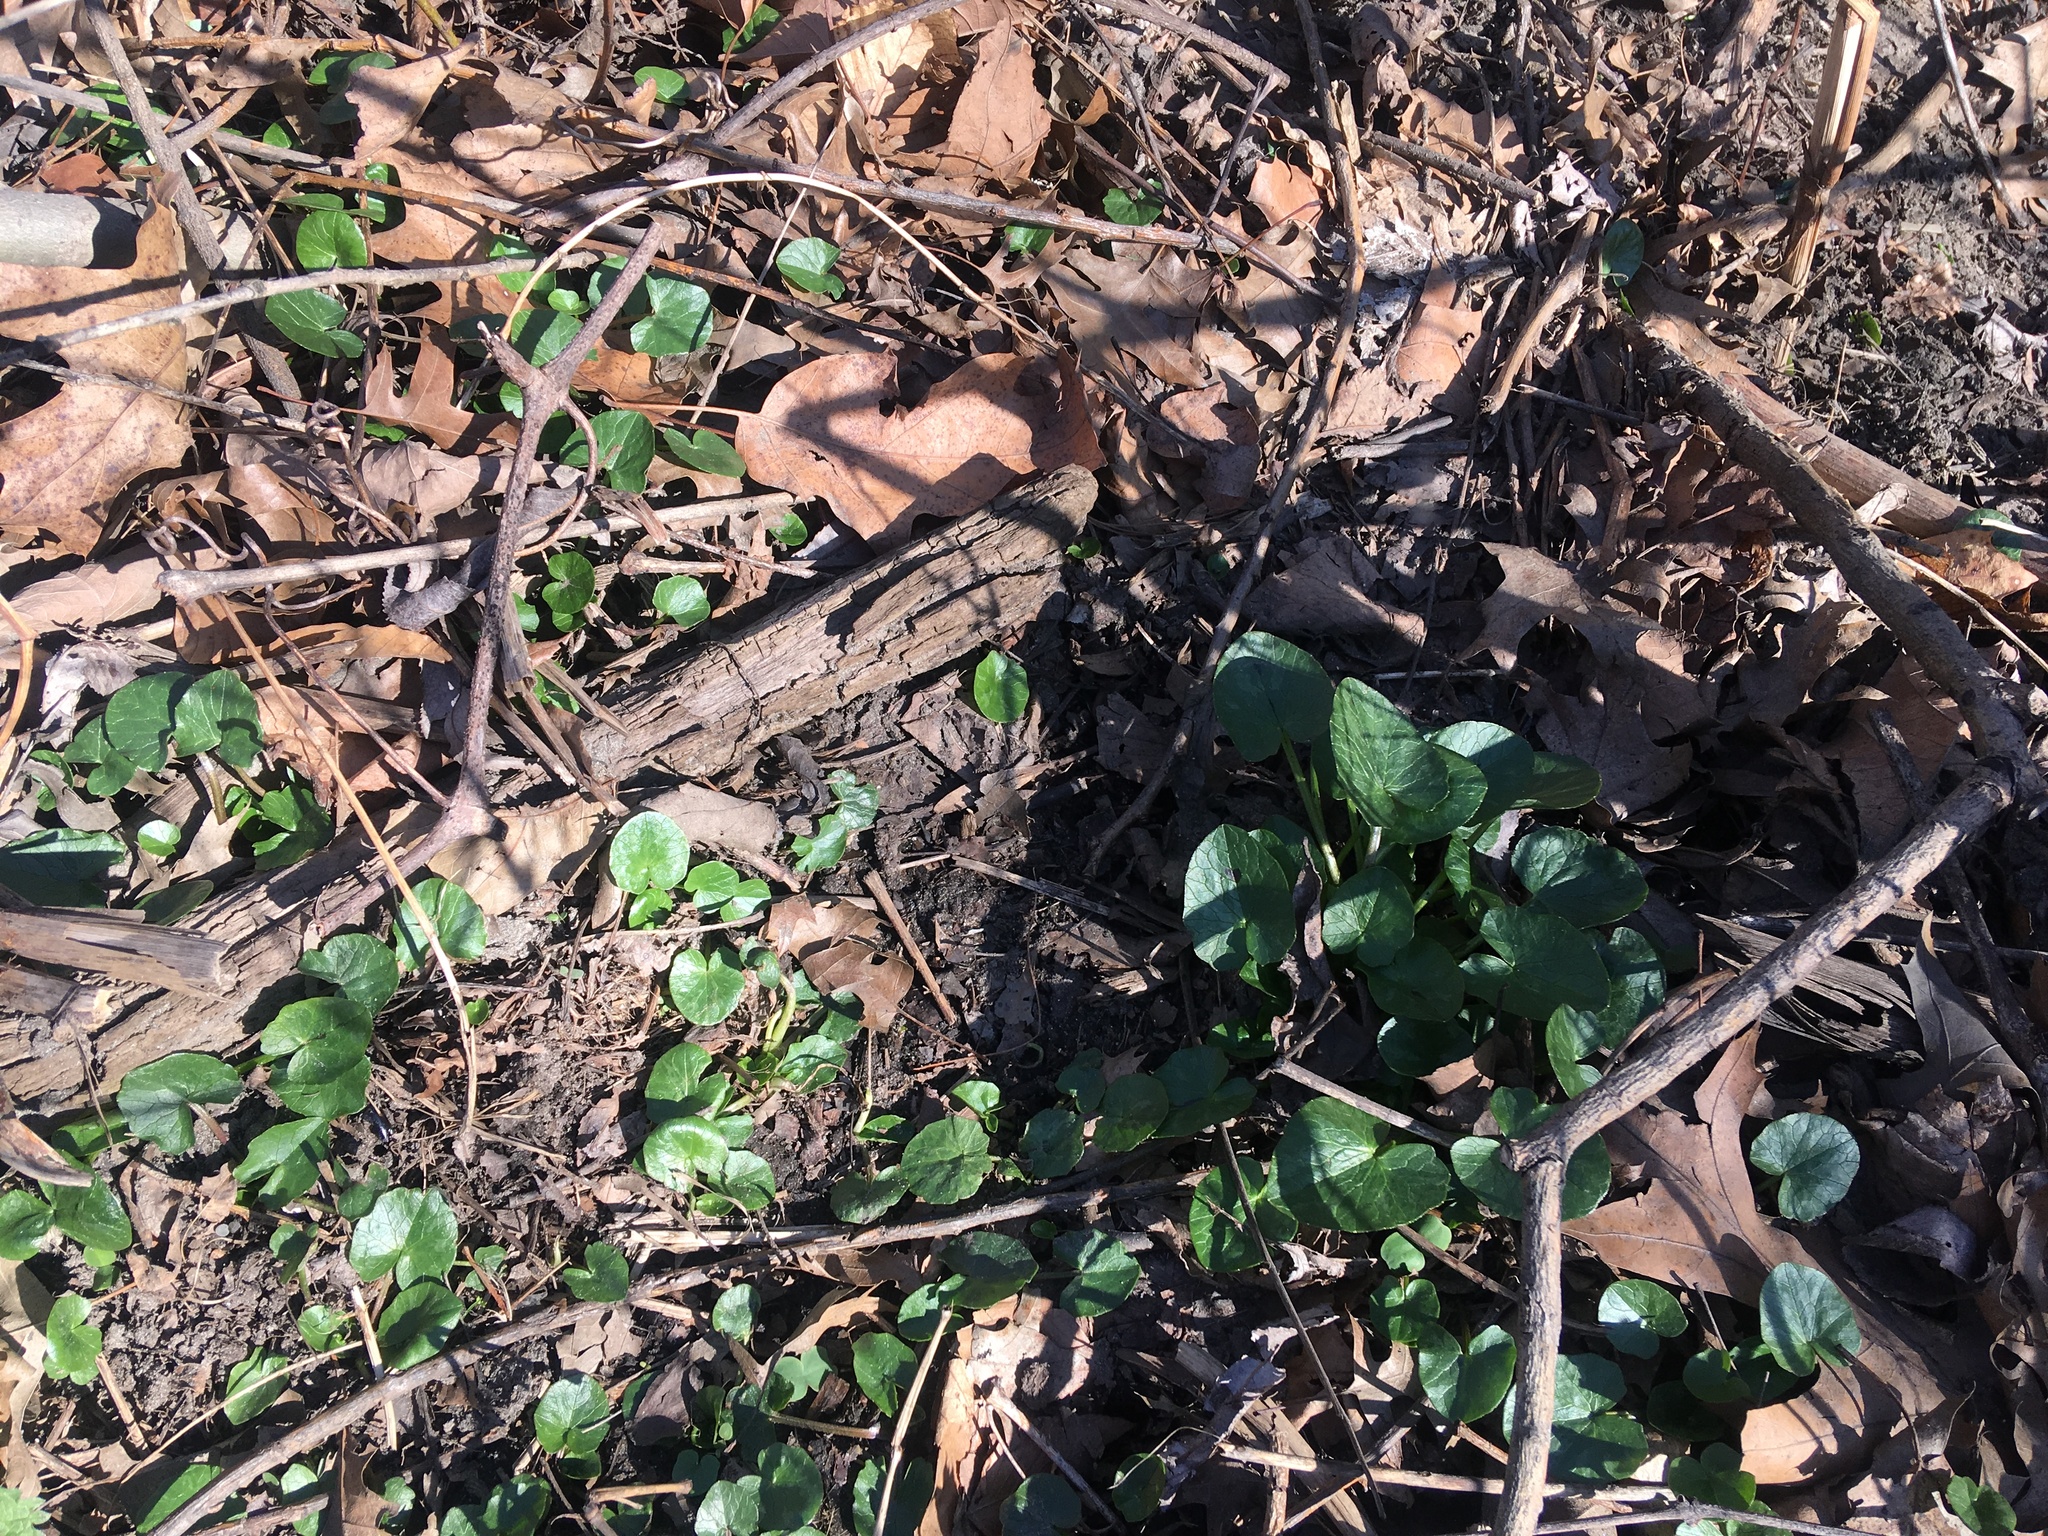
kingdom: Plantae
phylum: Tracheophyta
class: Magnoliopsida
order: Ranunculales
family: Ranunculaceae
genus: Ficaria
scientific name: Ficaria verna
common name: Lesser celandine
